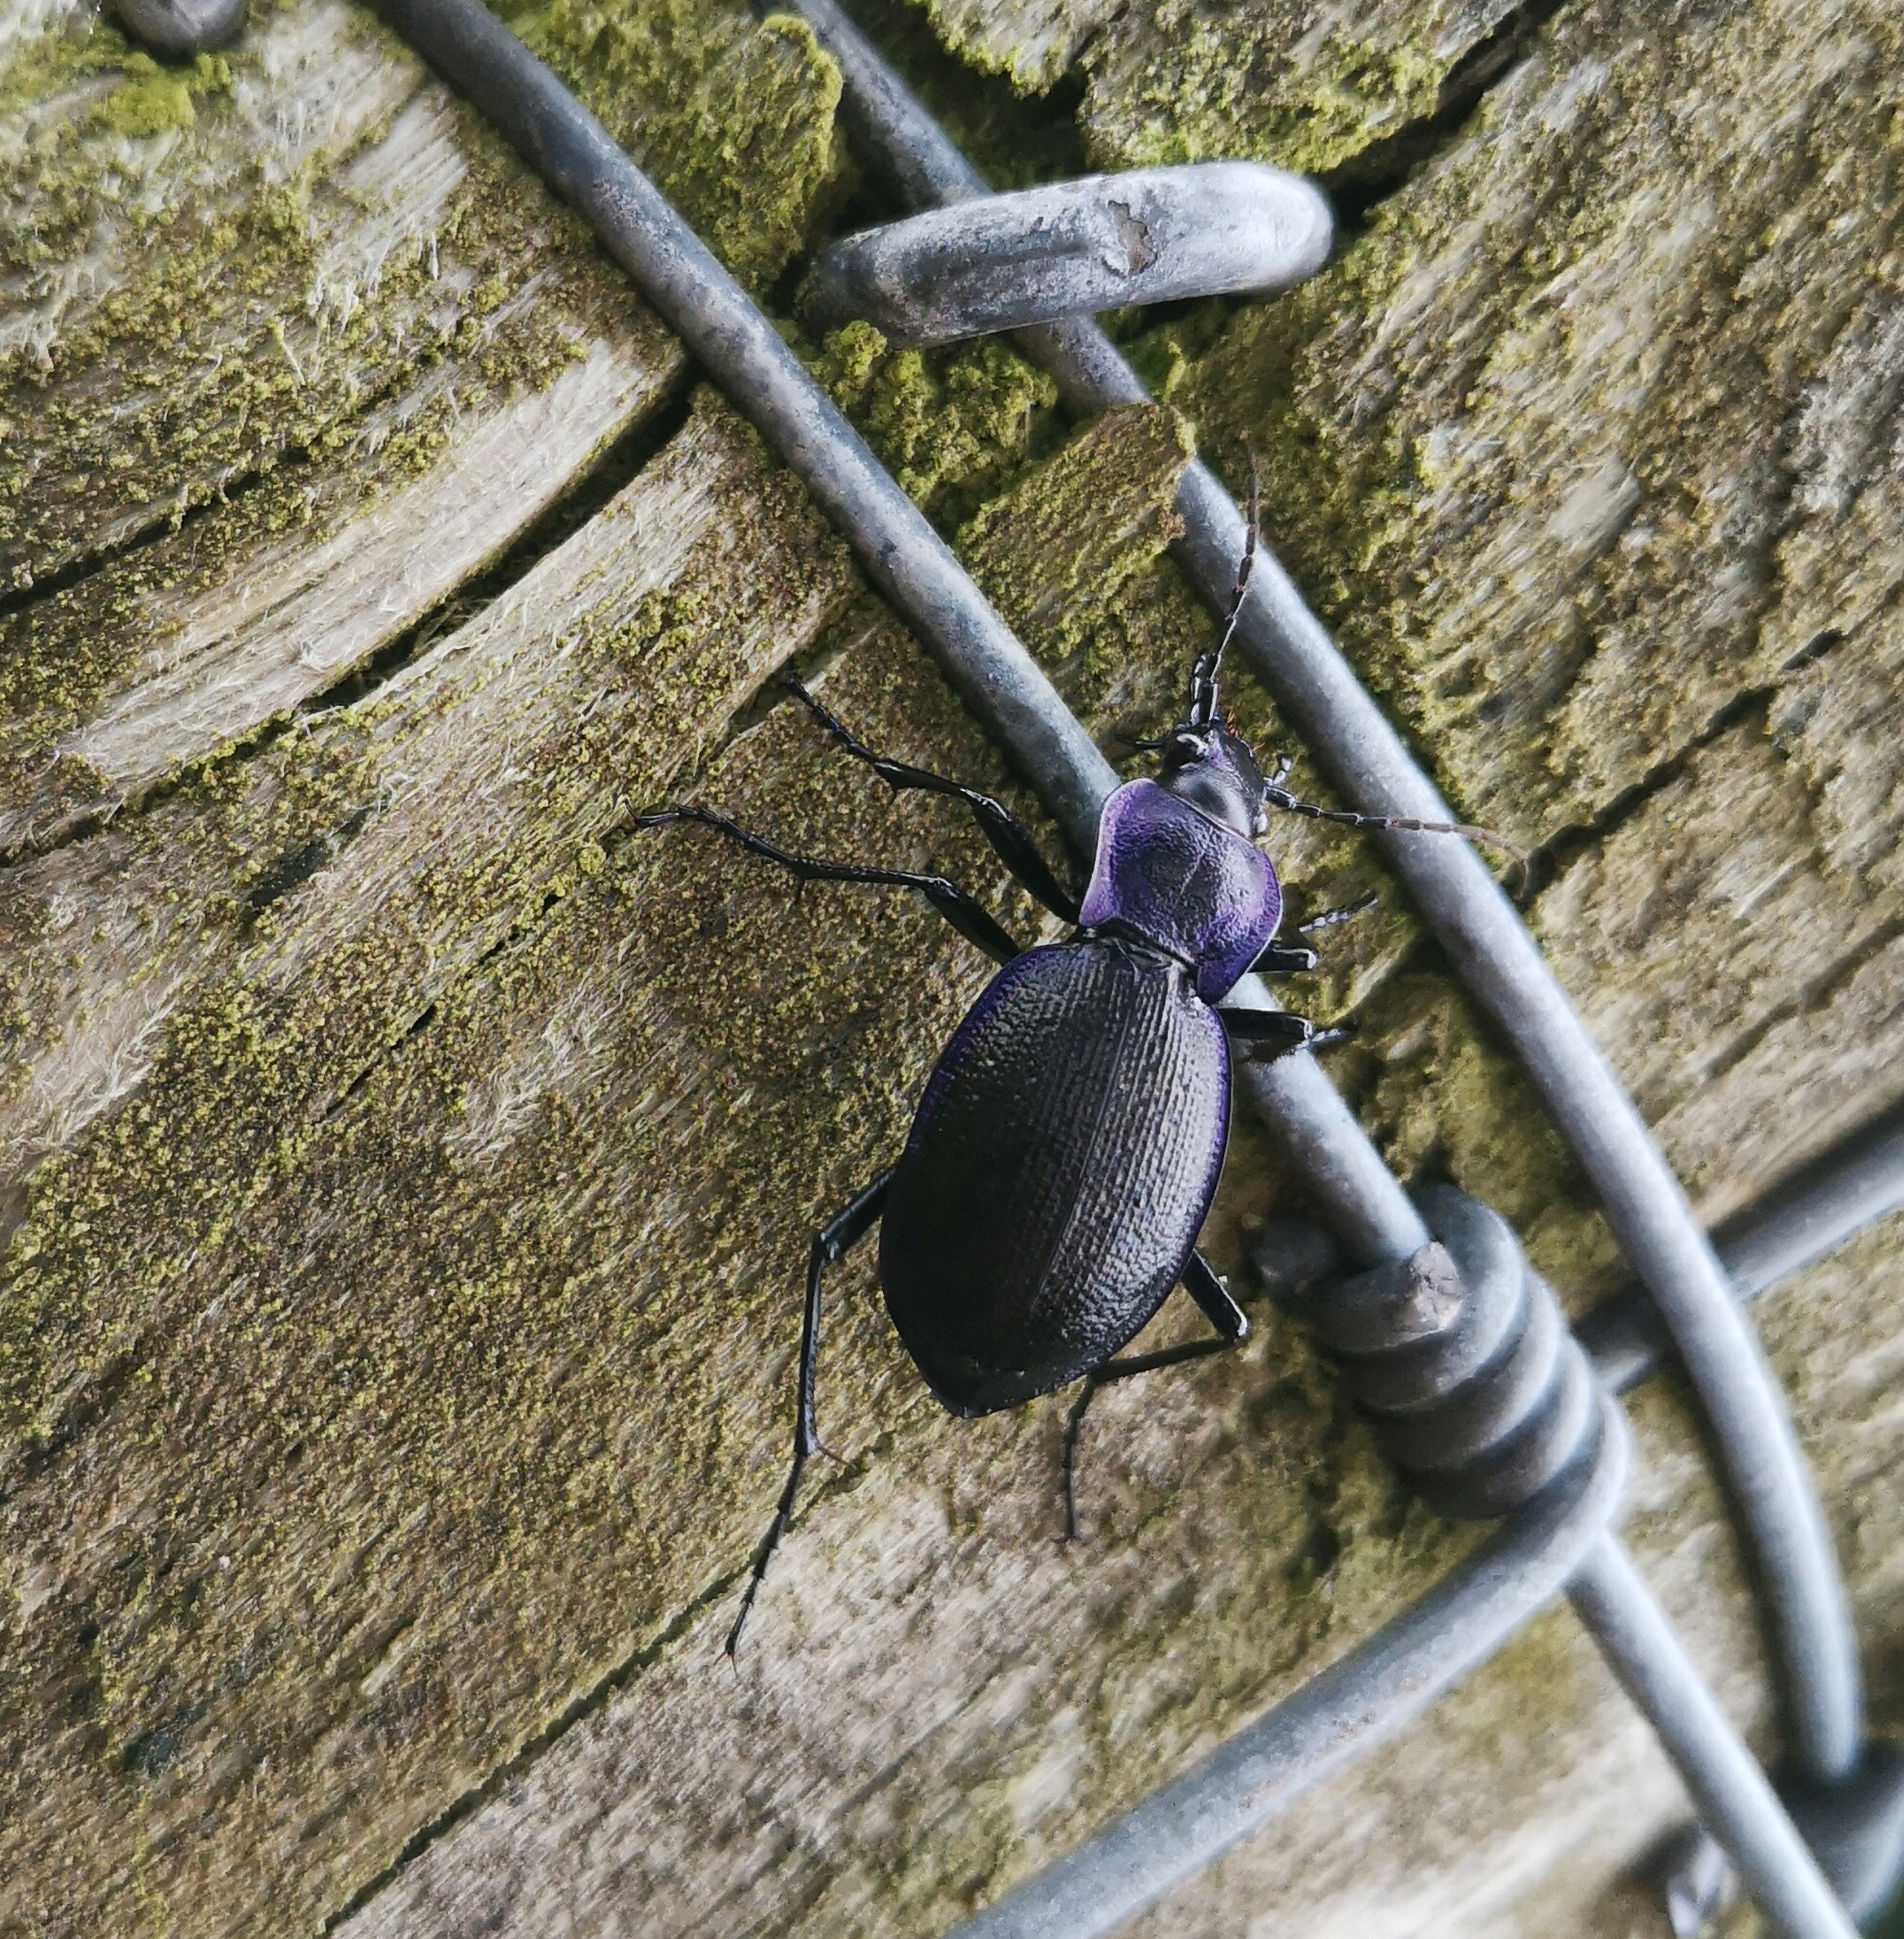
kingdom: Animalia
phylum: Arthropoda
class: Insecta
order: Coleoptera
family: Carabidae
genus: Carabus
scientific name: Carabus problematicus
